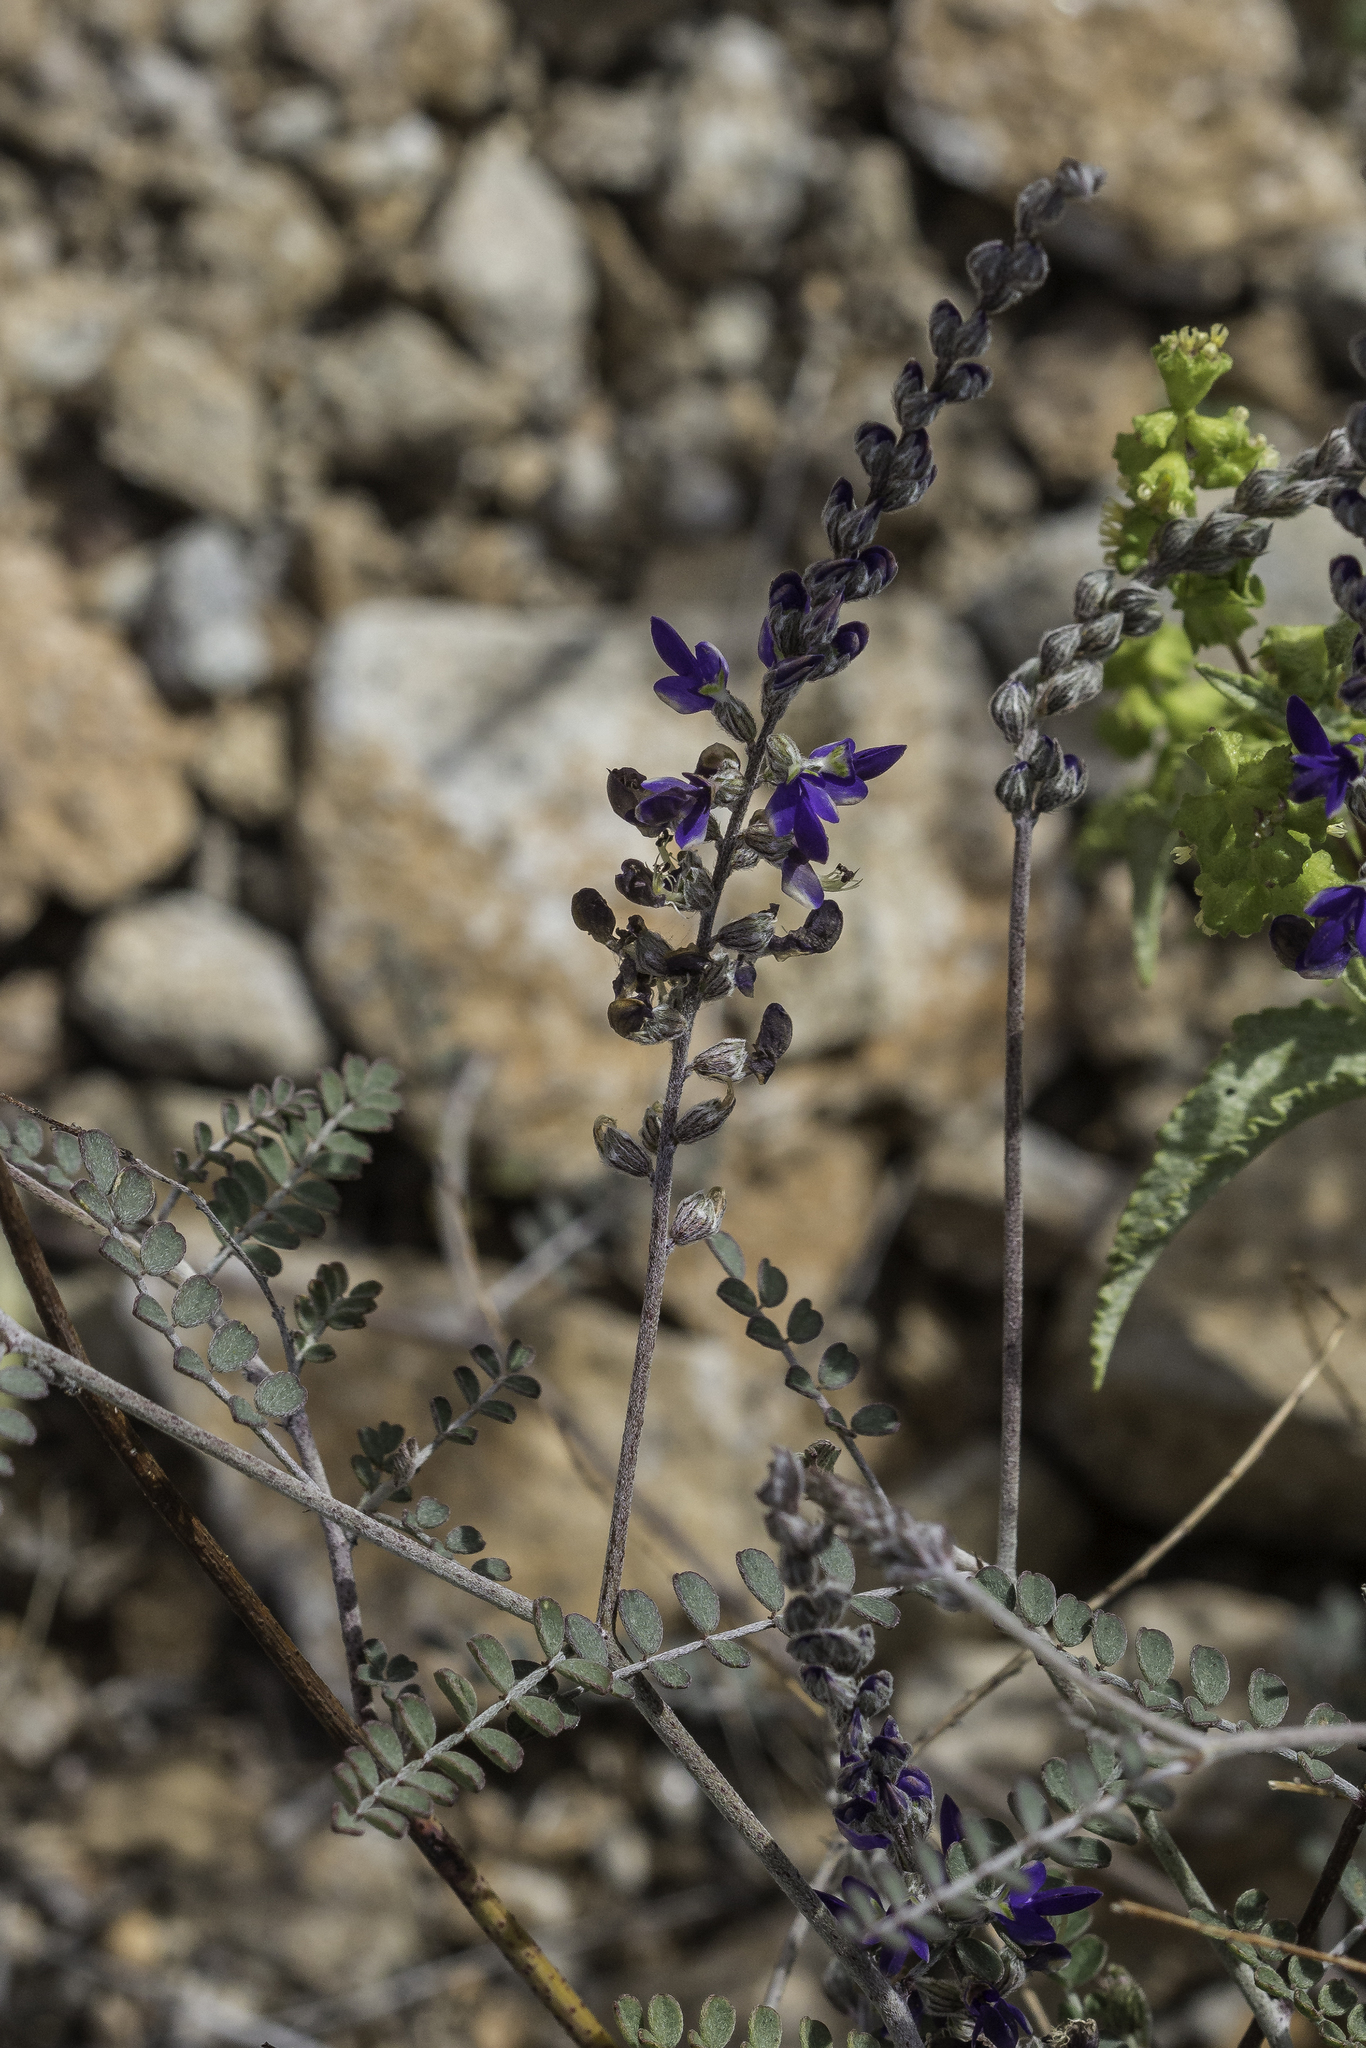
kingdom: Plantae
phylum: Tracheophyta
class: Magnoliopsida
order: Fabales
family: Fabaceae
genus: Marina
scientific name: Marina parryi
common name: Parry's marina
